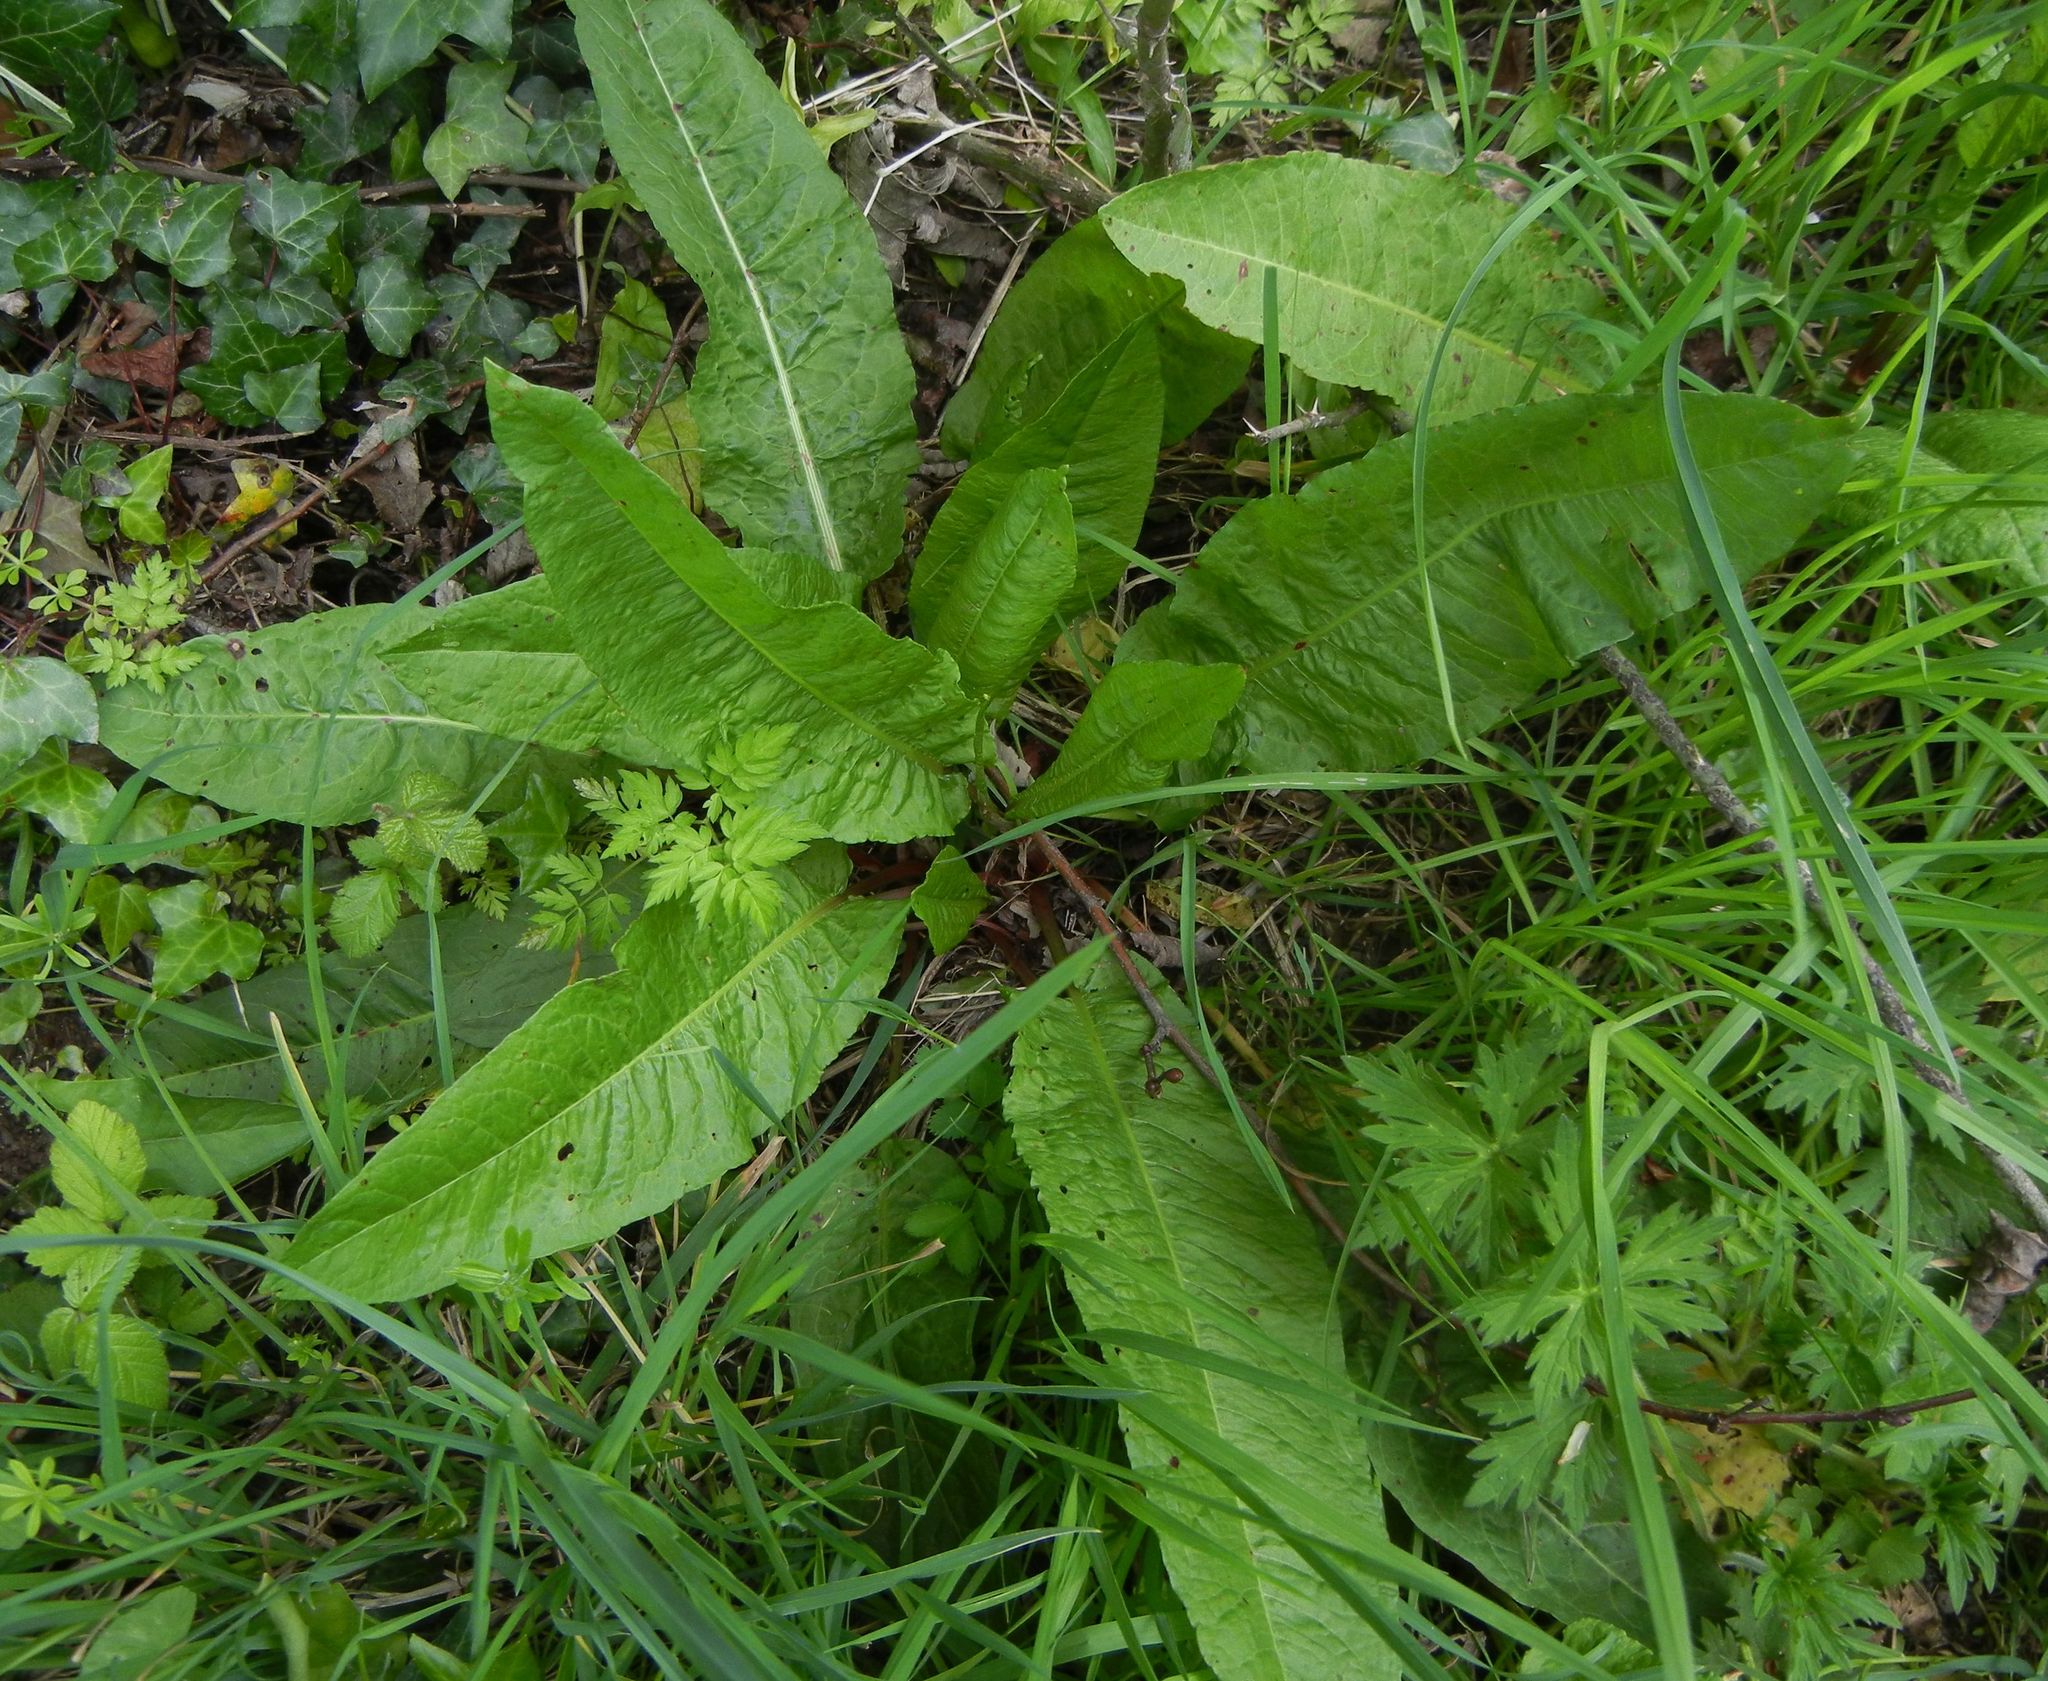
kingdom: Plantae
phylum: Tracheophyta
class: Magnoliopsida
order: Caryophyllales
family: Polygonaceae
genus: Rumex
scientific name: Rumex sanguineus
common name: Wood dock
